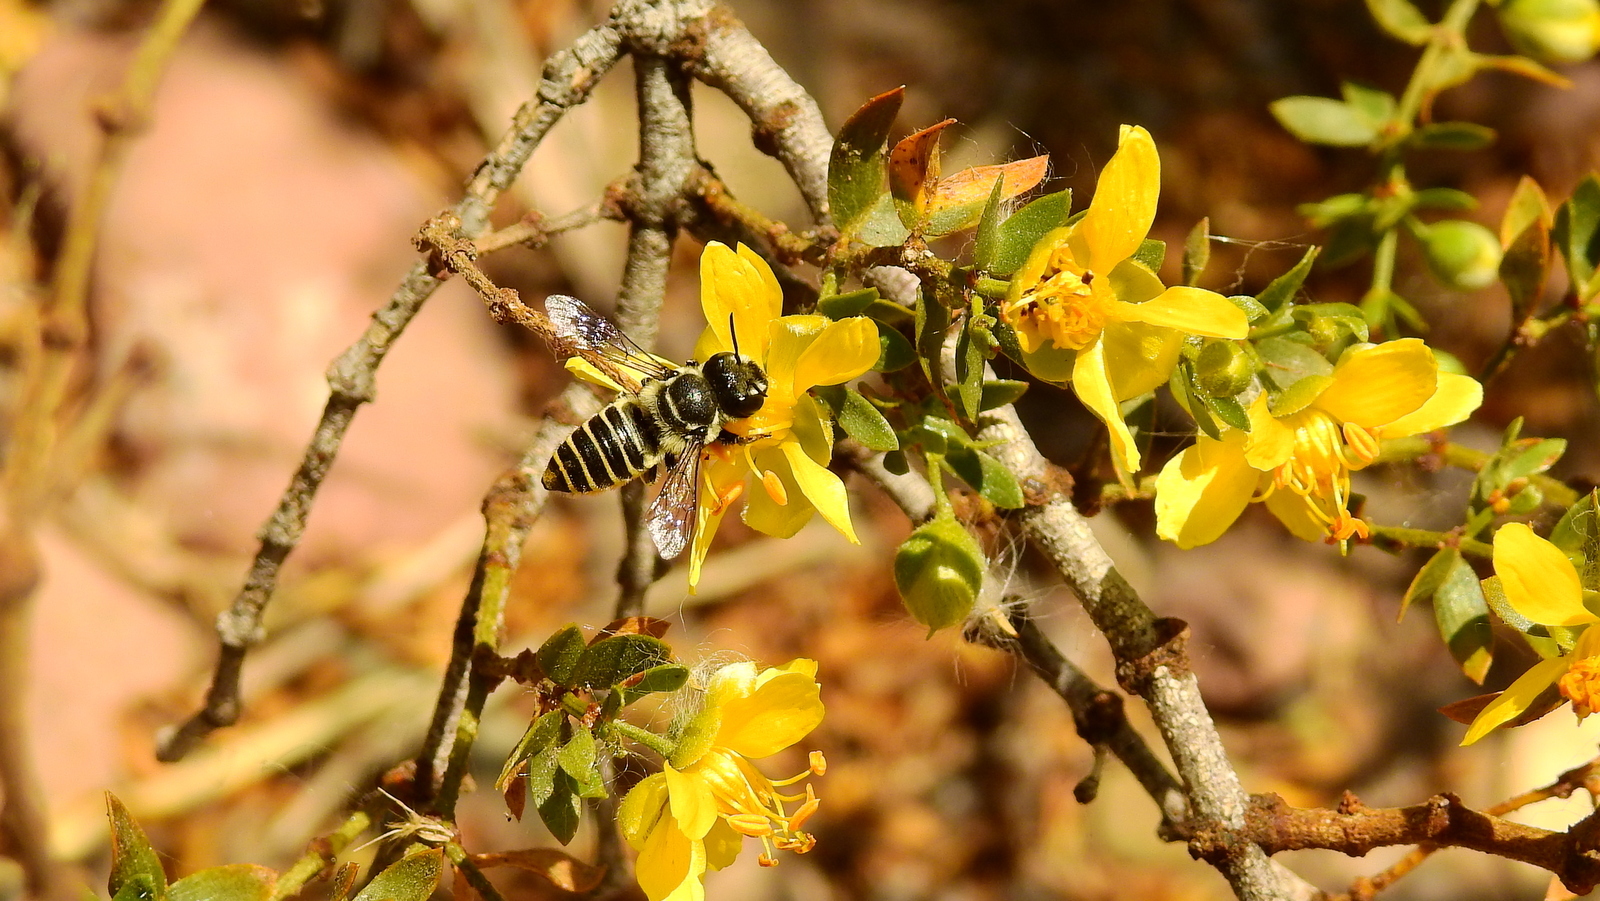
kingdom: Plantae
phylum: Tracheophyta
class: Magnoliopsida
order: Zygophyllales
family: Zygophyllaceae
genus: Larrea
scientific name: Larrea divaricata
